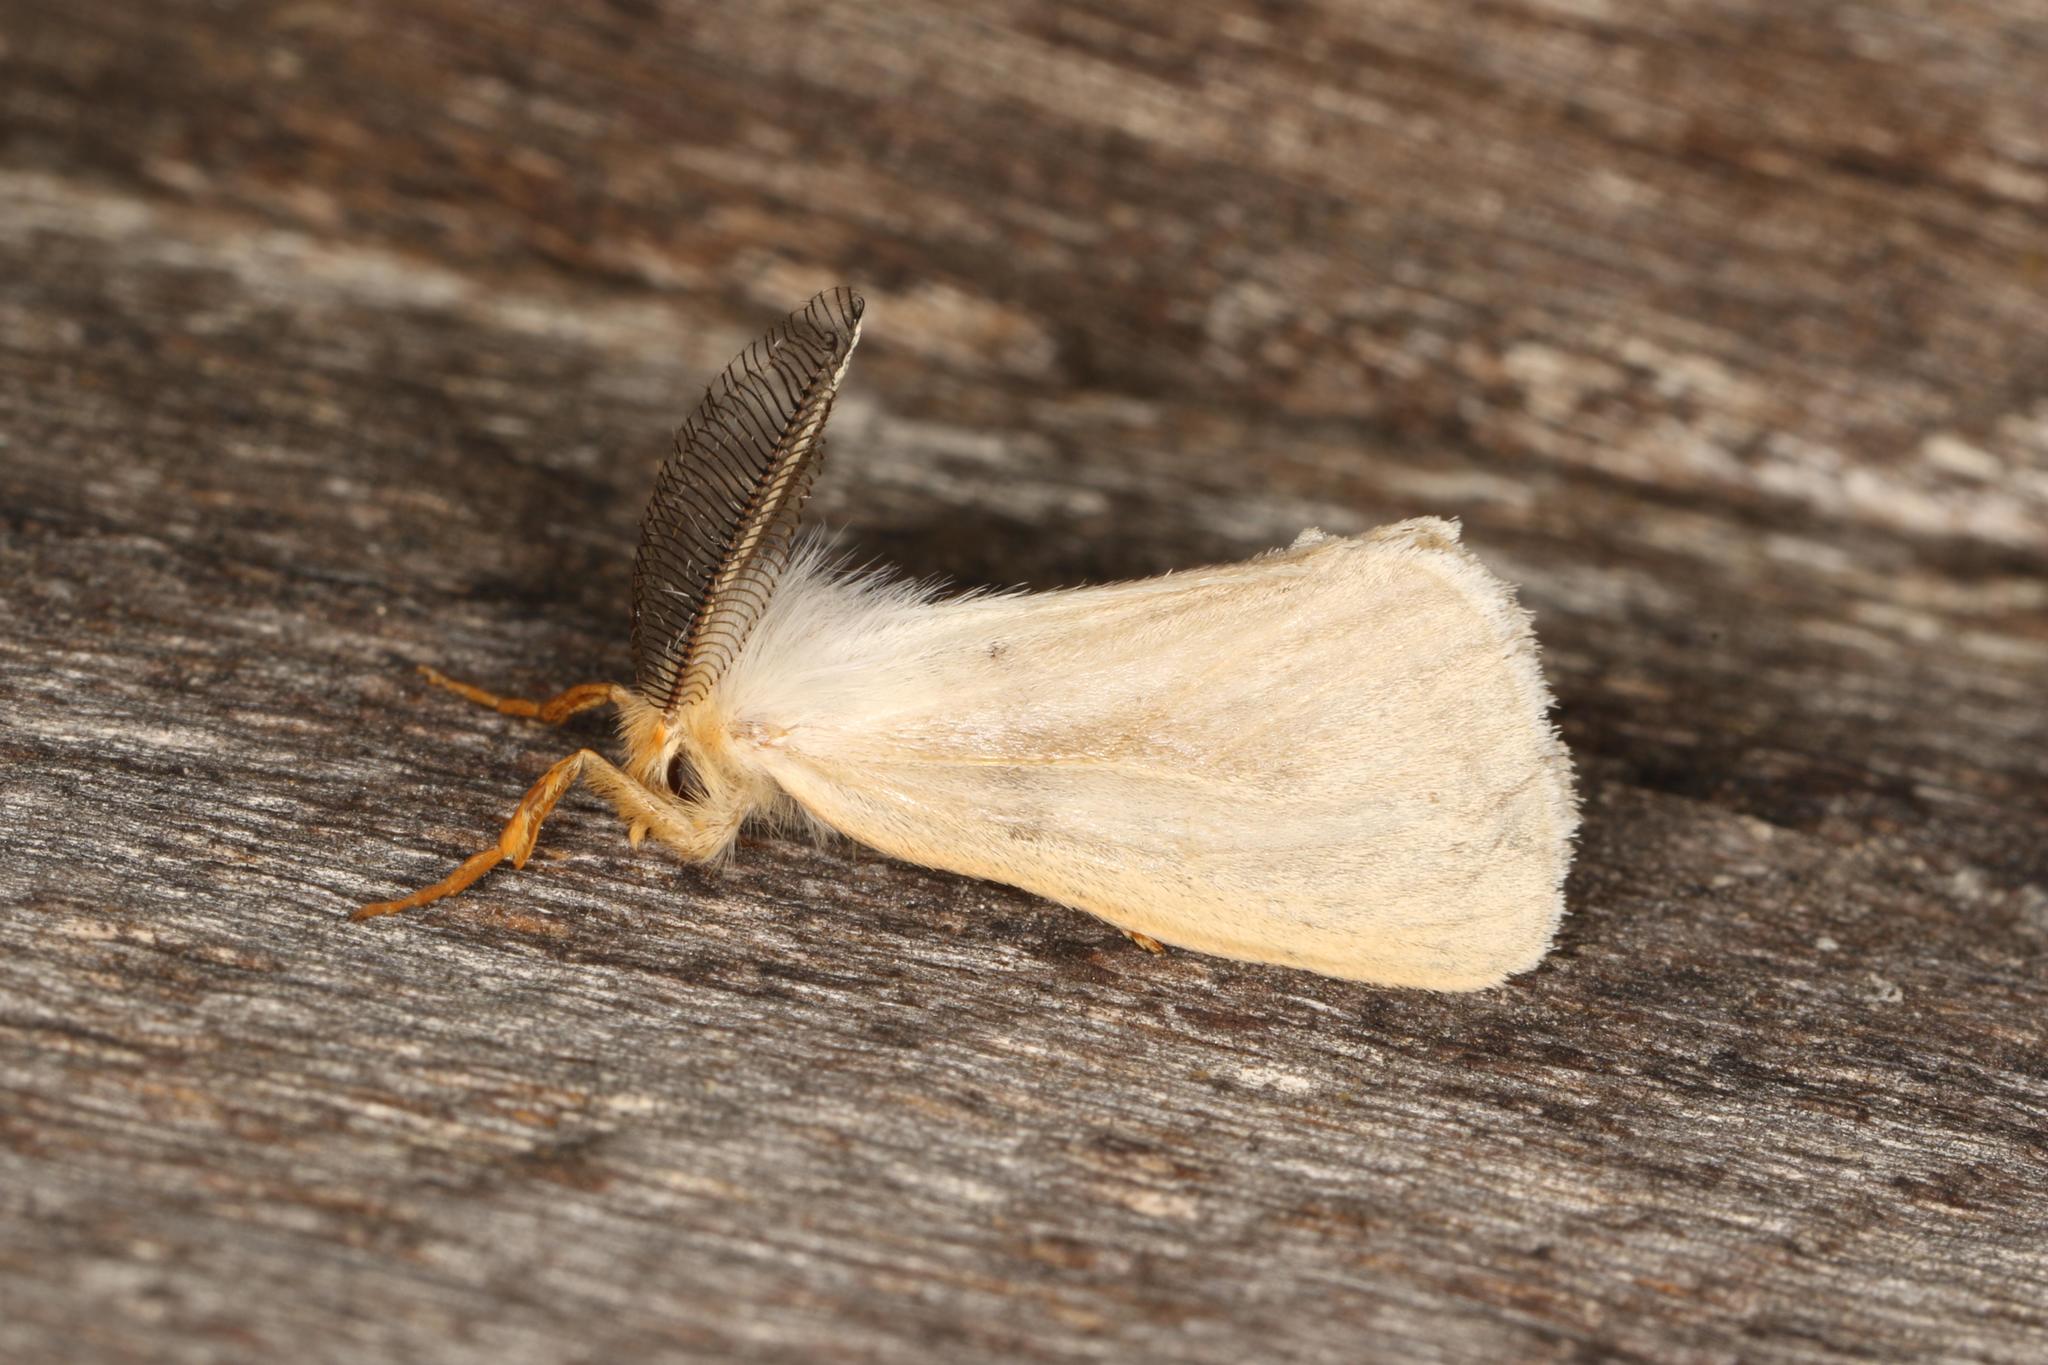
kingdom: Animalia
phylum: Arthropoda
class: Insecta
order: Lepidoptera
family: Erebidae
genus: Laelia
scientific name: Laelia obsoleta
